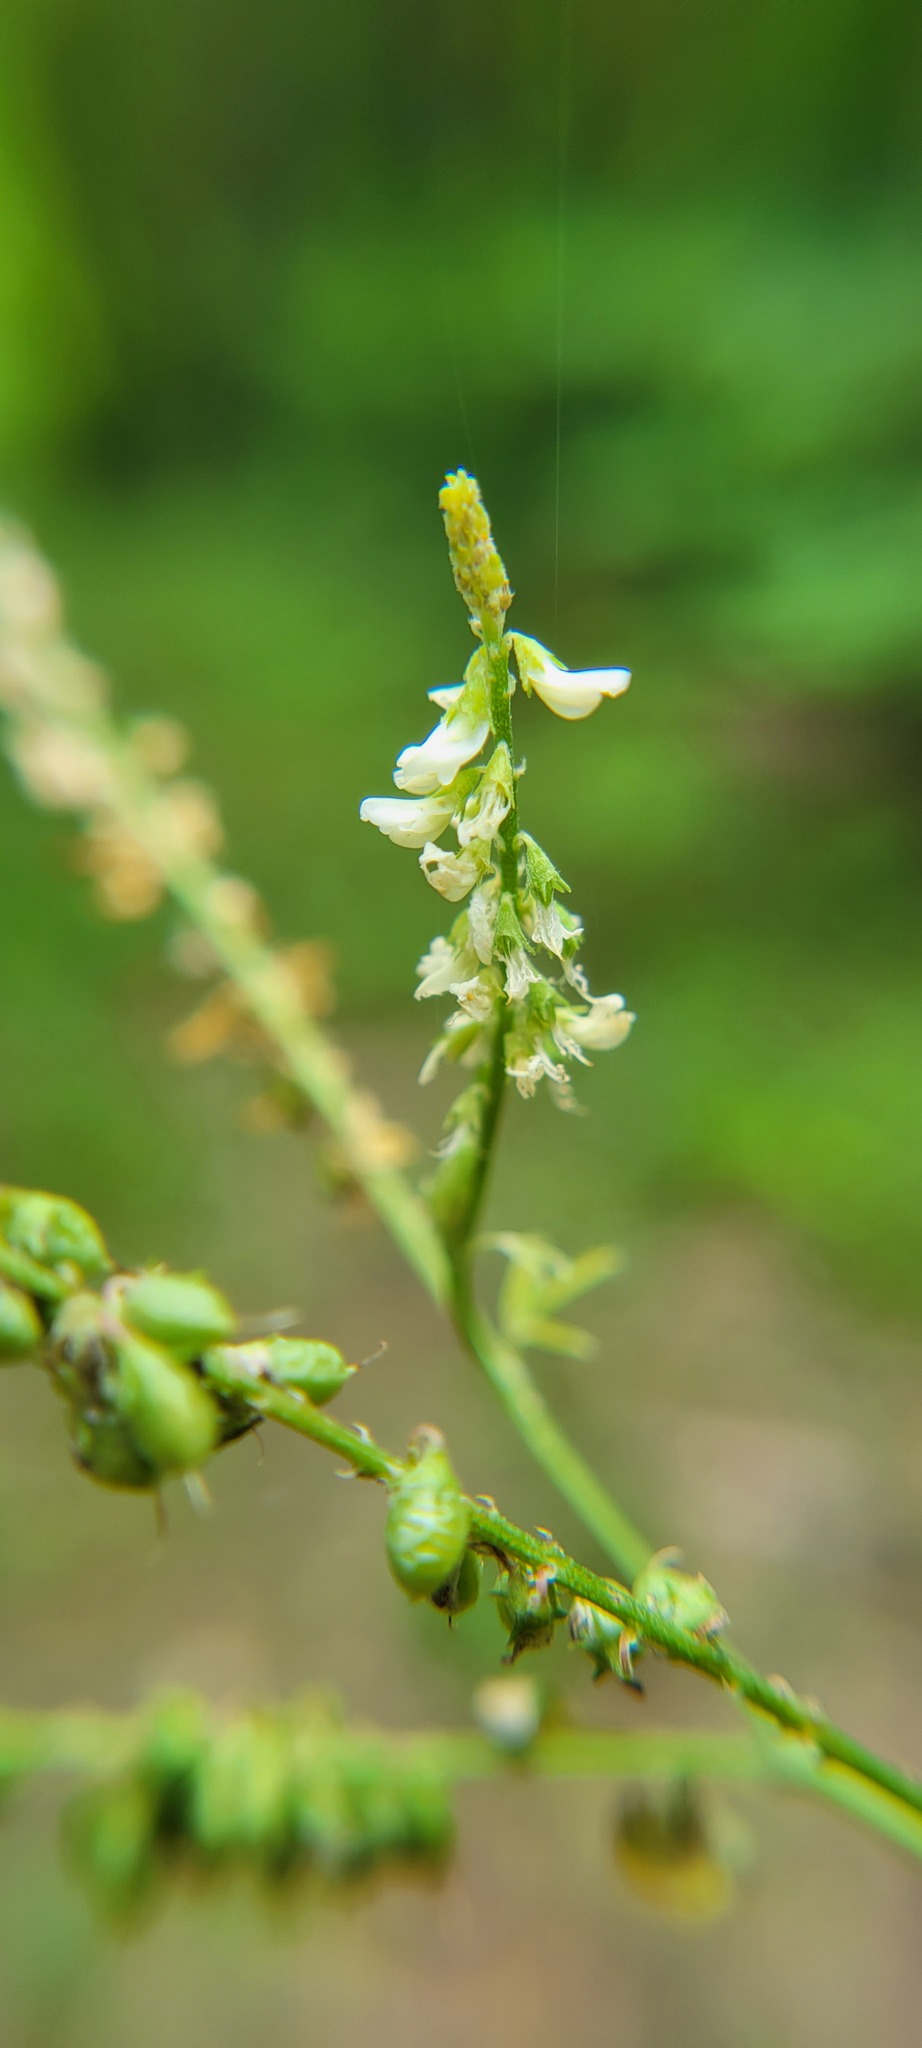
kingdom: Plantae
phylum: Tracheophyta
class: Magnoliopsida
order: Fabales
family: Fabaceae
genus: Melilotus
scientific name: Melilotus albus
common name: White melilot
